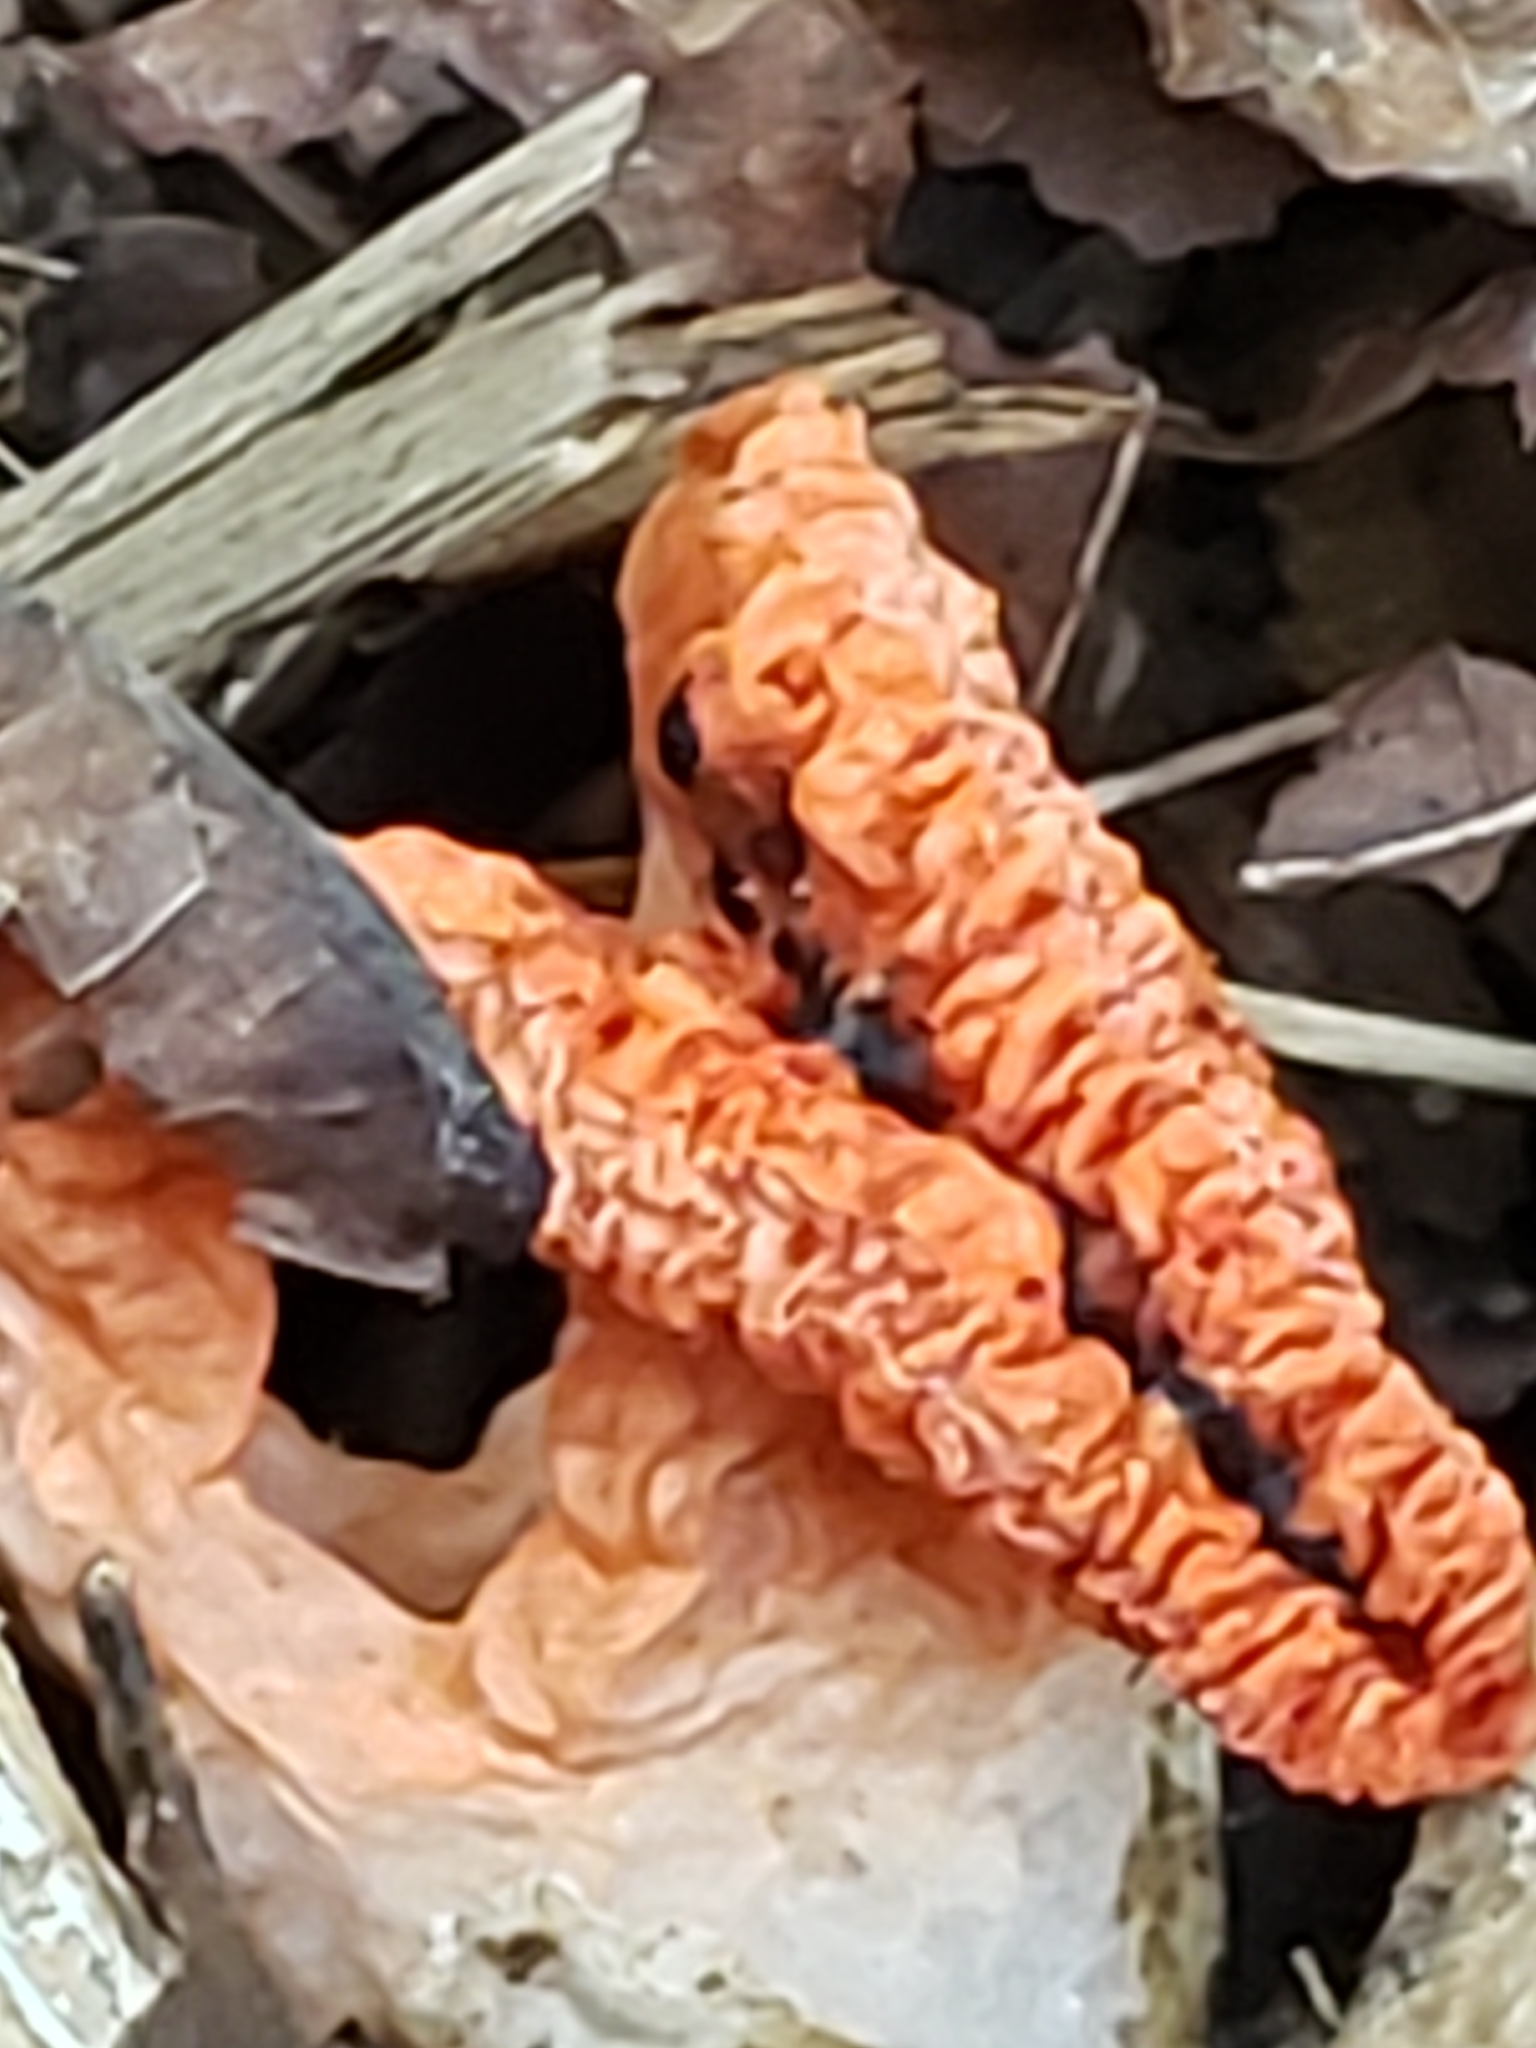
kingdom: Fungi
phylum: Basidiomycota
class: Agaricomycetes
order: Phallales
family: Phallaceae
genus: Pseudocolus
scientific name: Pseudocolus fusiformis
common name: Stinky squid
